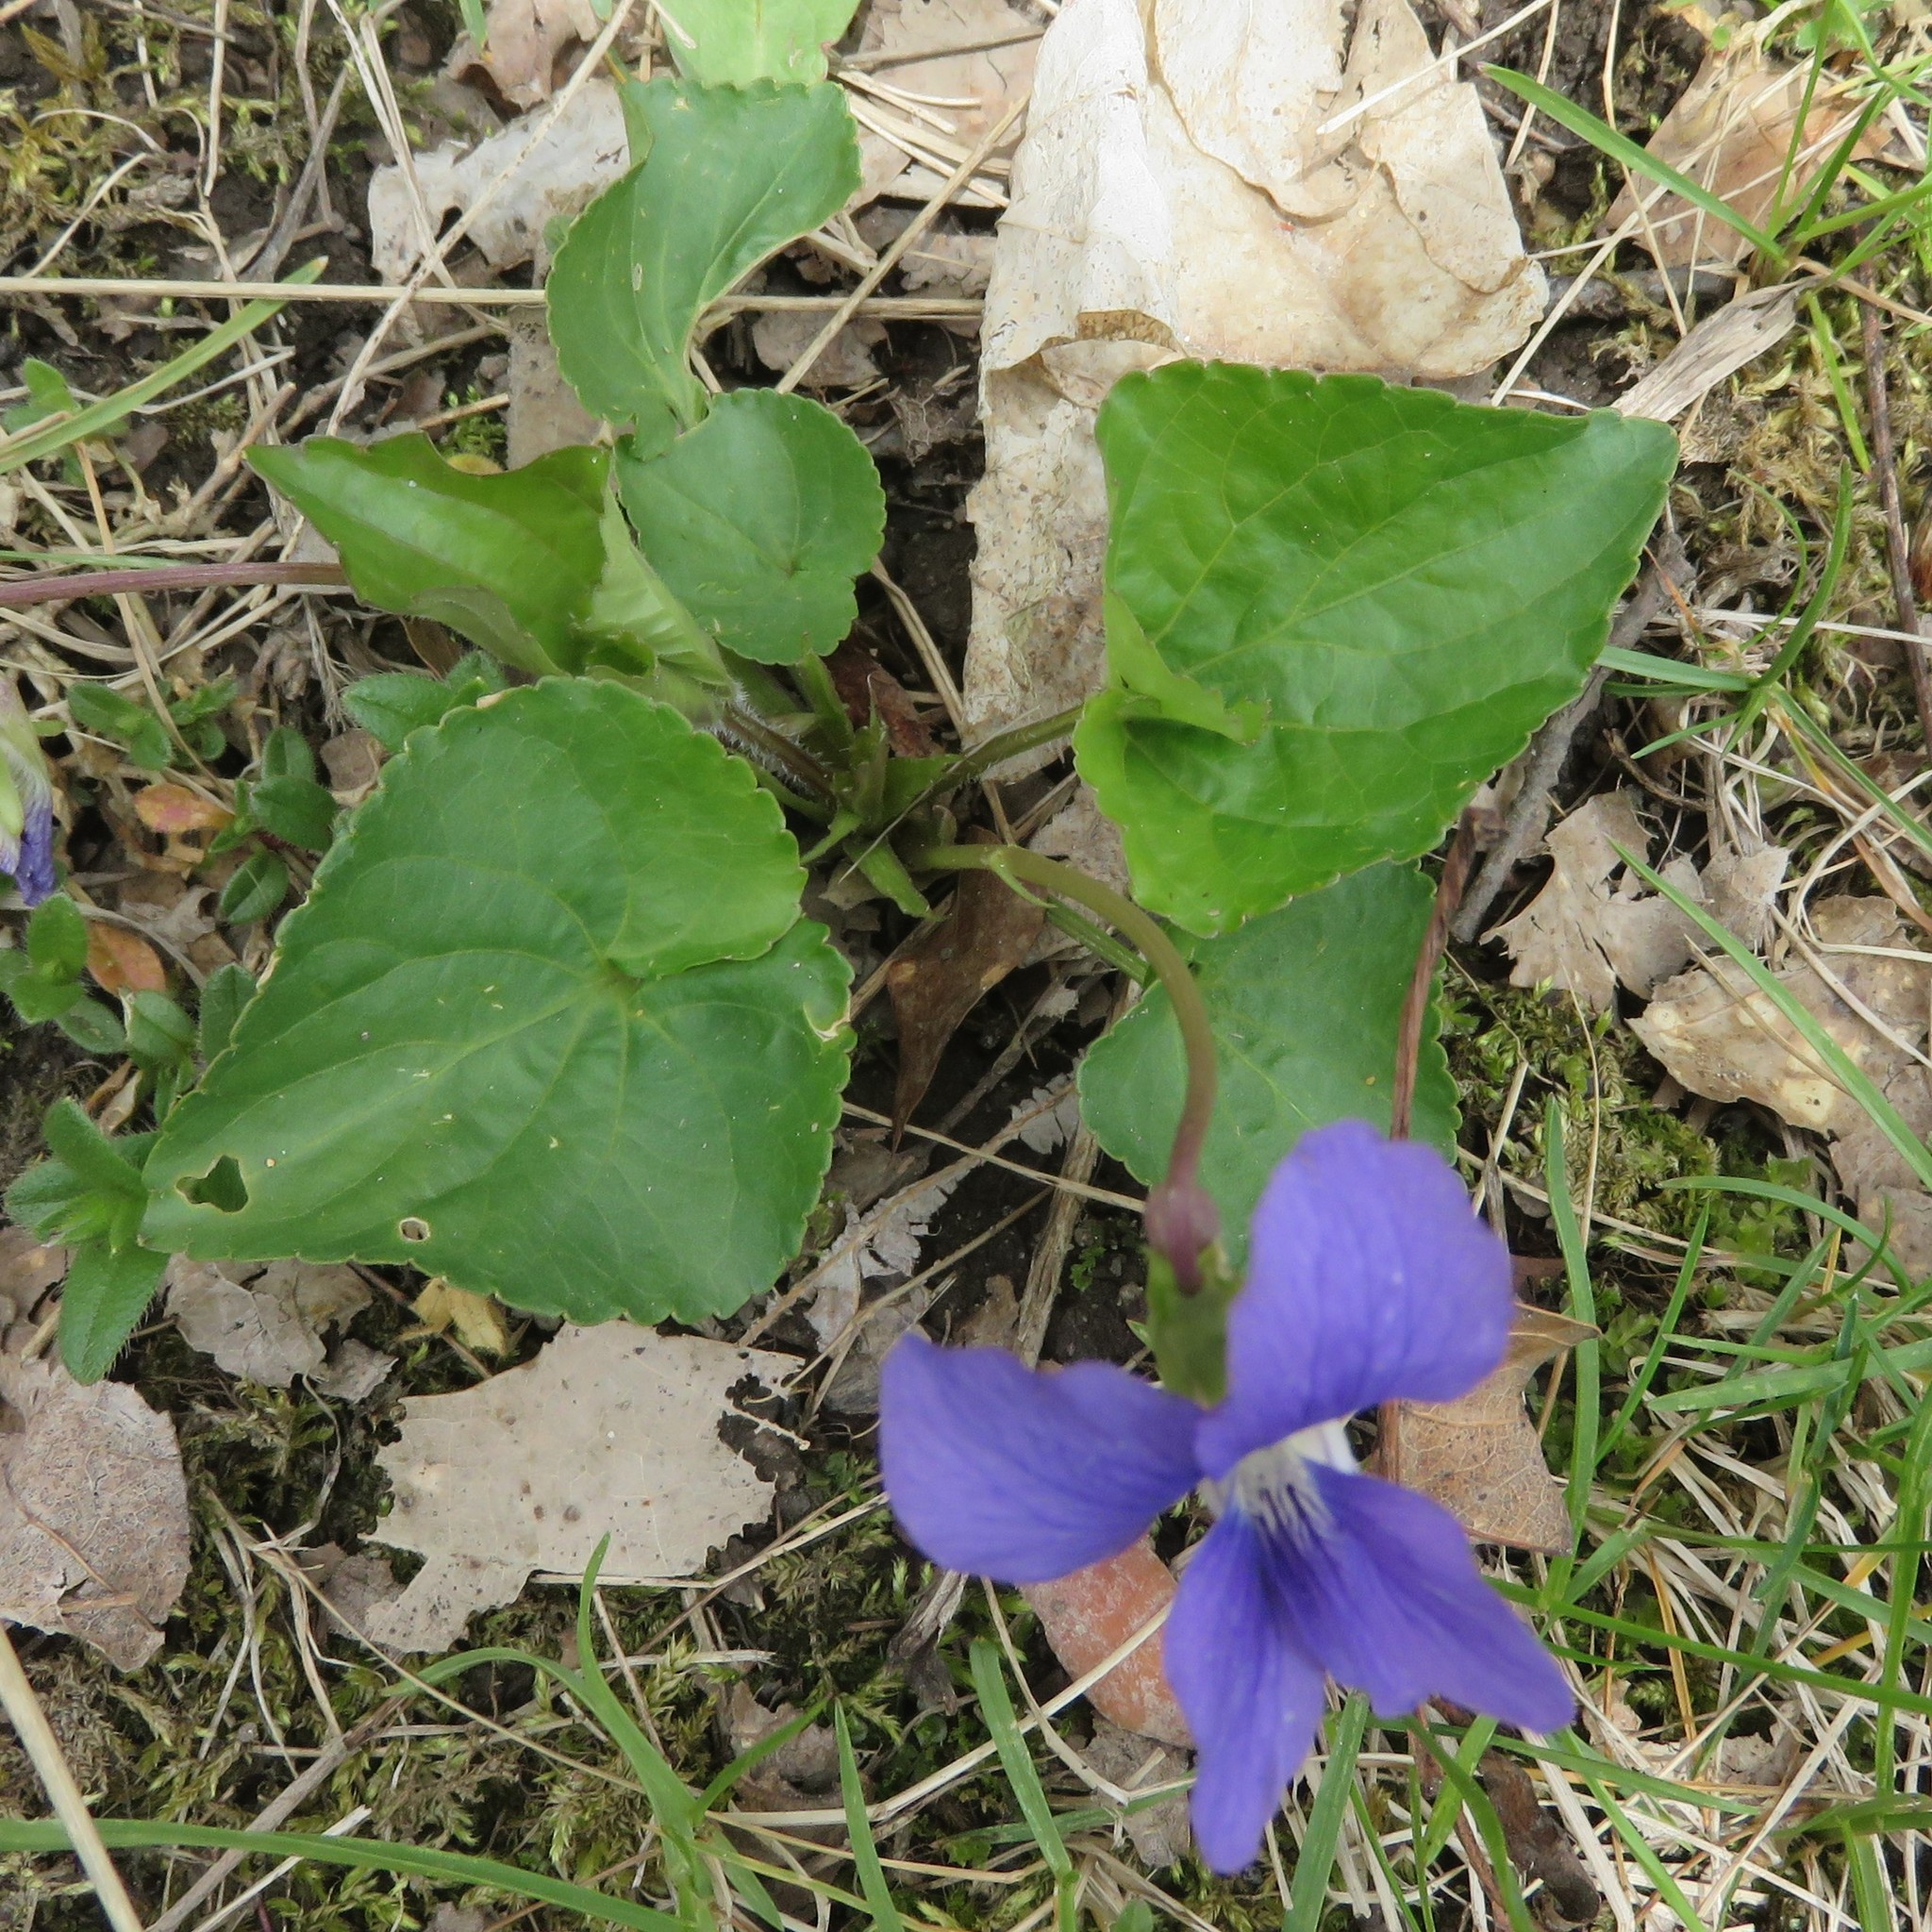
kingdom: Plantae
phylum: Tracheophyta
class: Magnoliopsida
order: Malpighiales
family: Violaceae
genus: Viola
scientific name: Viola sororia
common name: Dooryard violet
